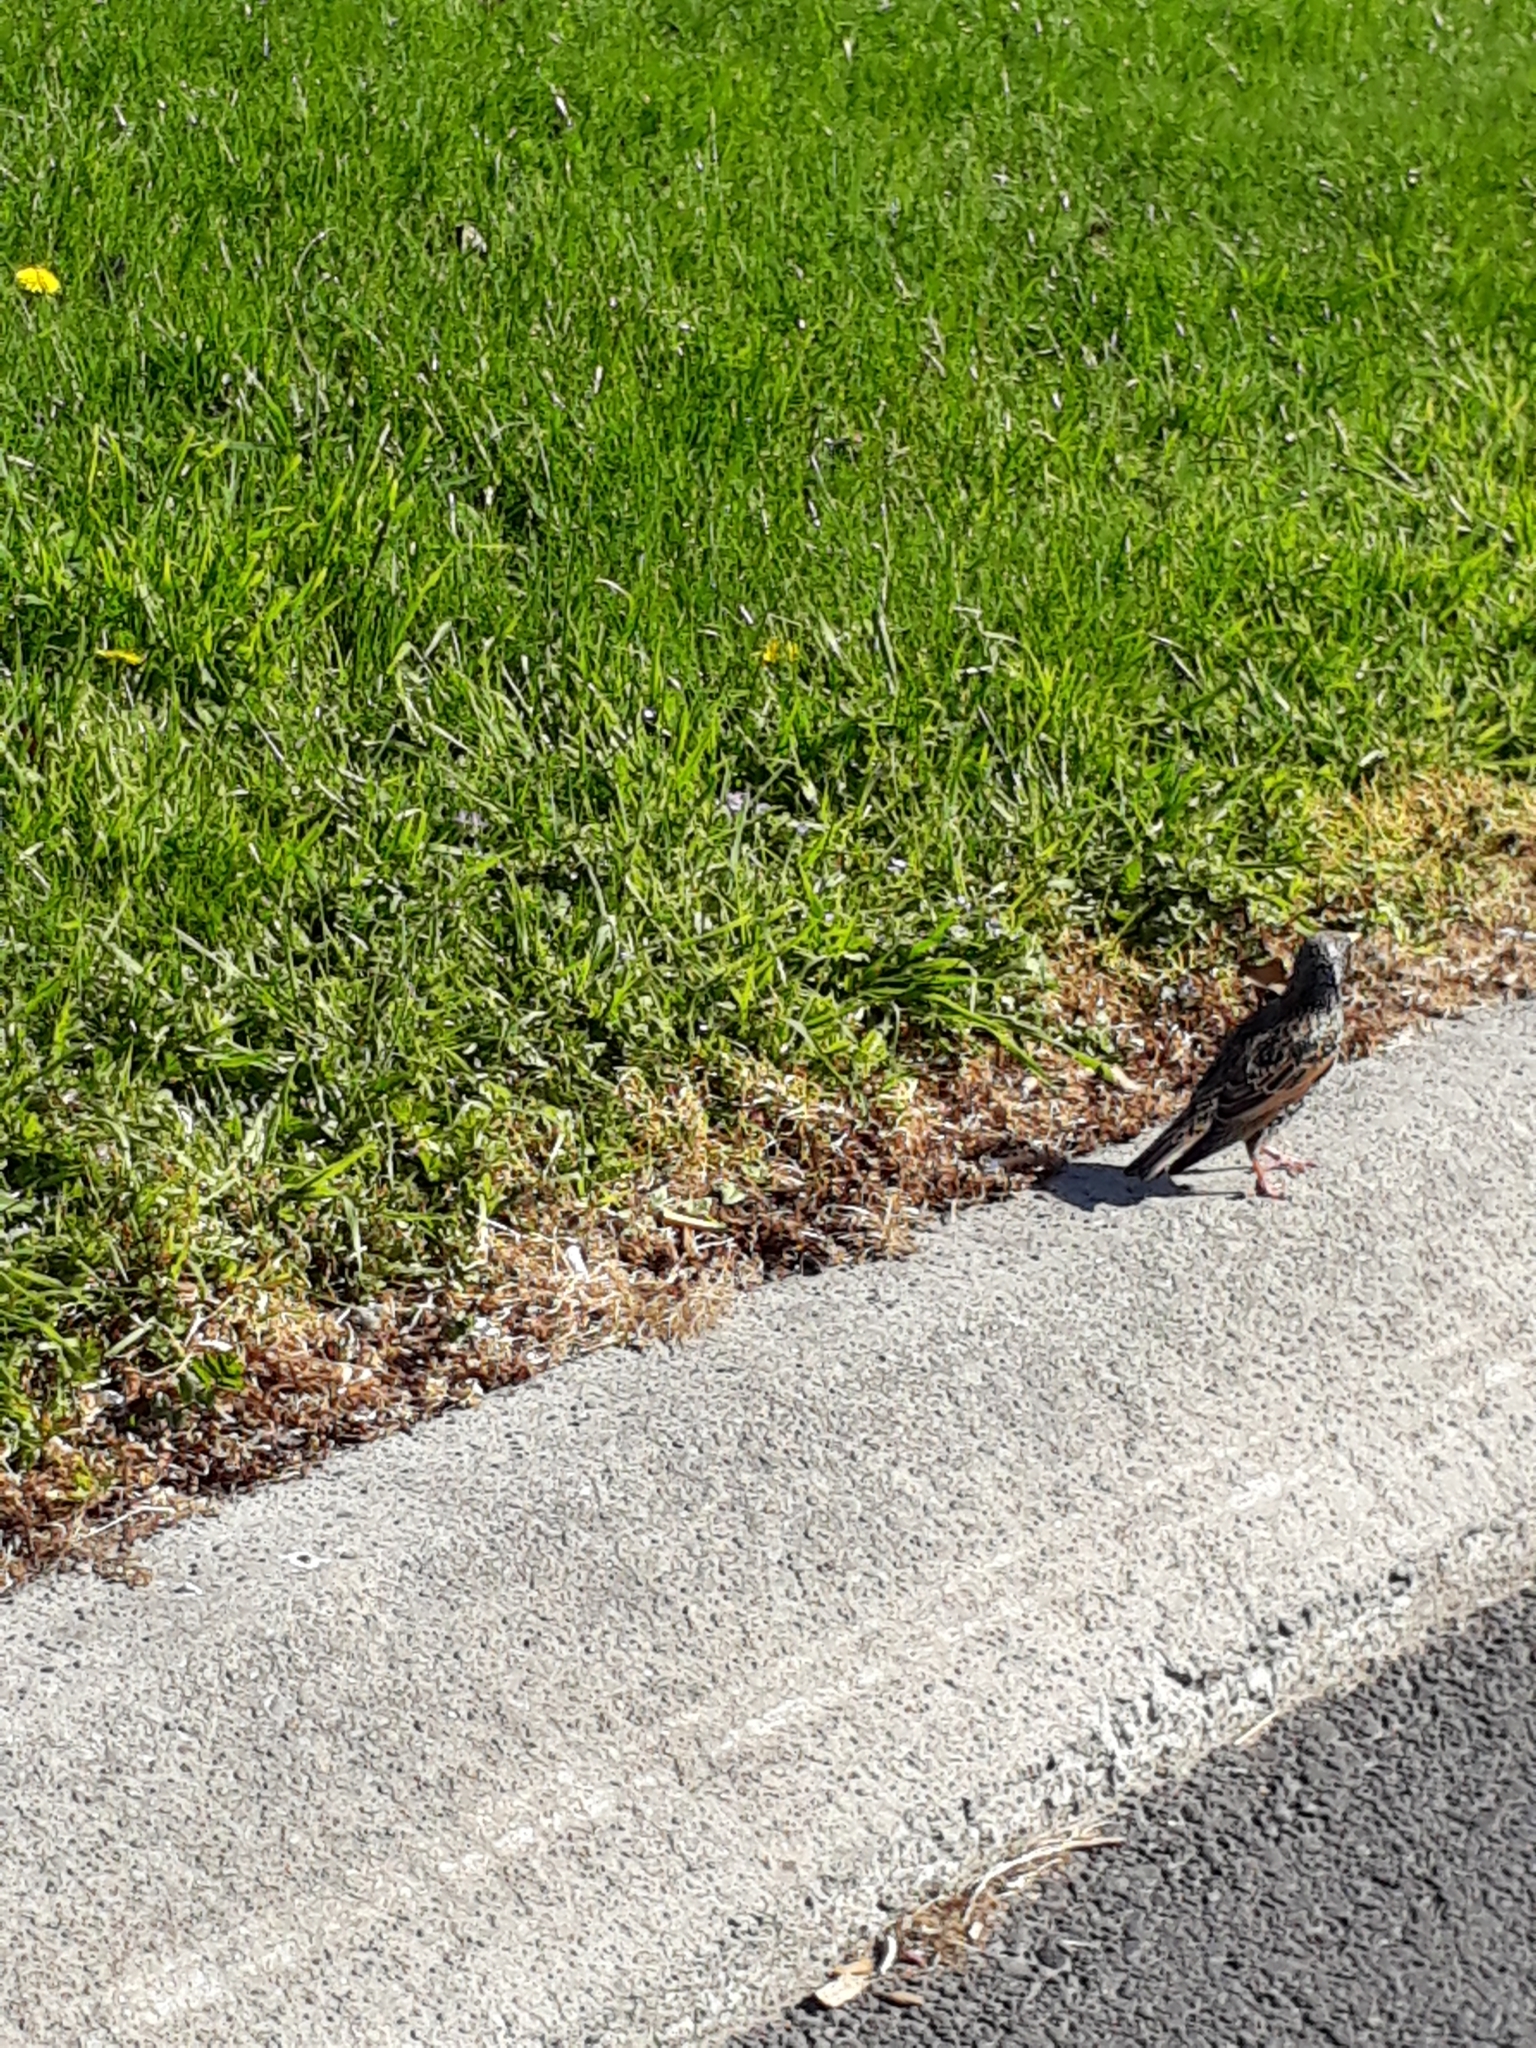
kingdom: Animalia
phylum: Chordata
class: Aves
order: Passeriformes
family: Sturnidae
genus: Sturnus
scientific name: Sturnus vulgaris
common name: Common starling
